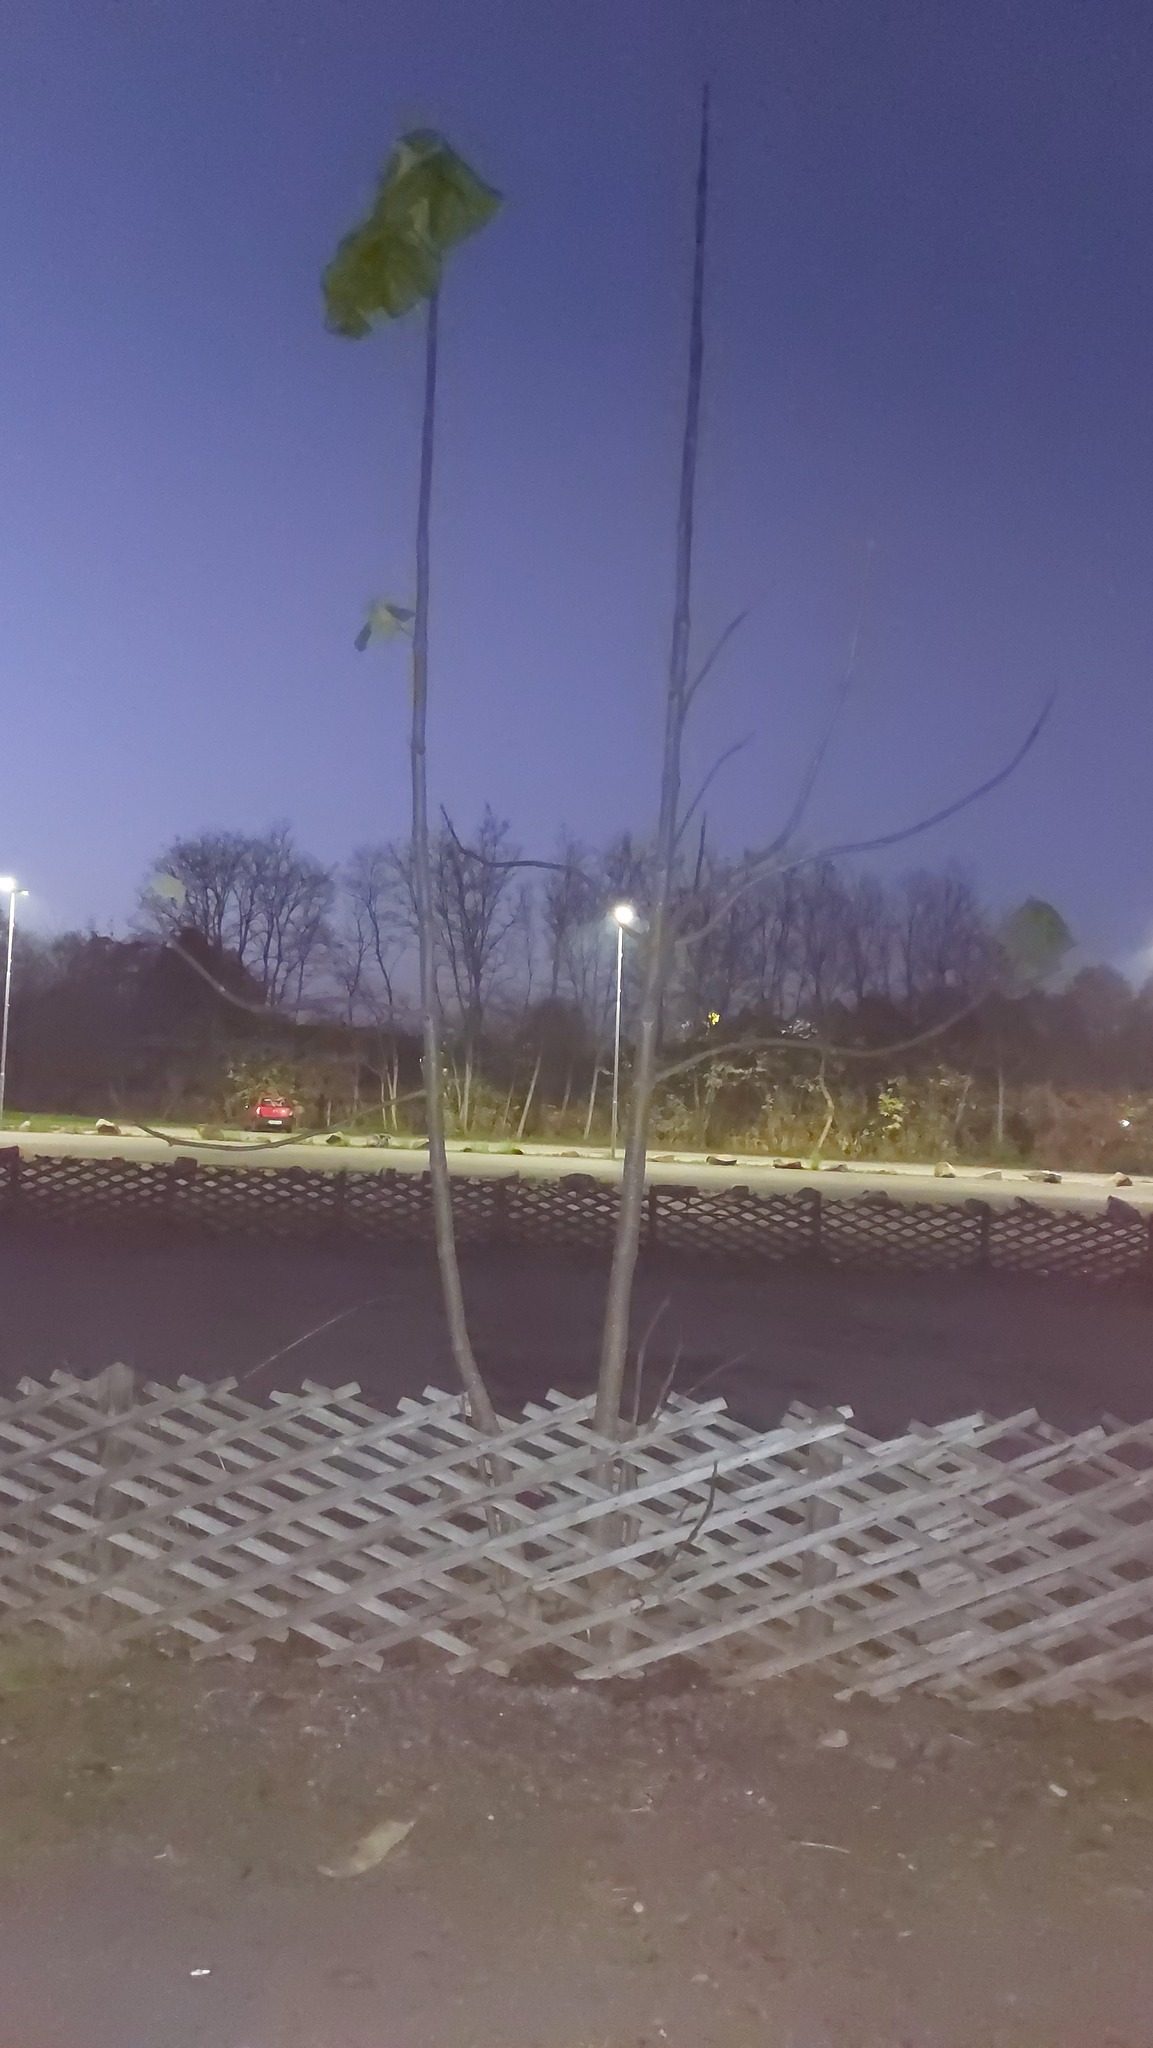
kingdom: Plantae
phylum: Tracheophyta
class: Magnoliopsida
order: Lamiales
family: Paulowniaceae
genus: Paulownia
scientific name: Paulownia tomentosa
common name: Foxglove-tree
